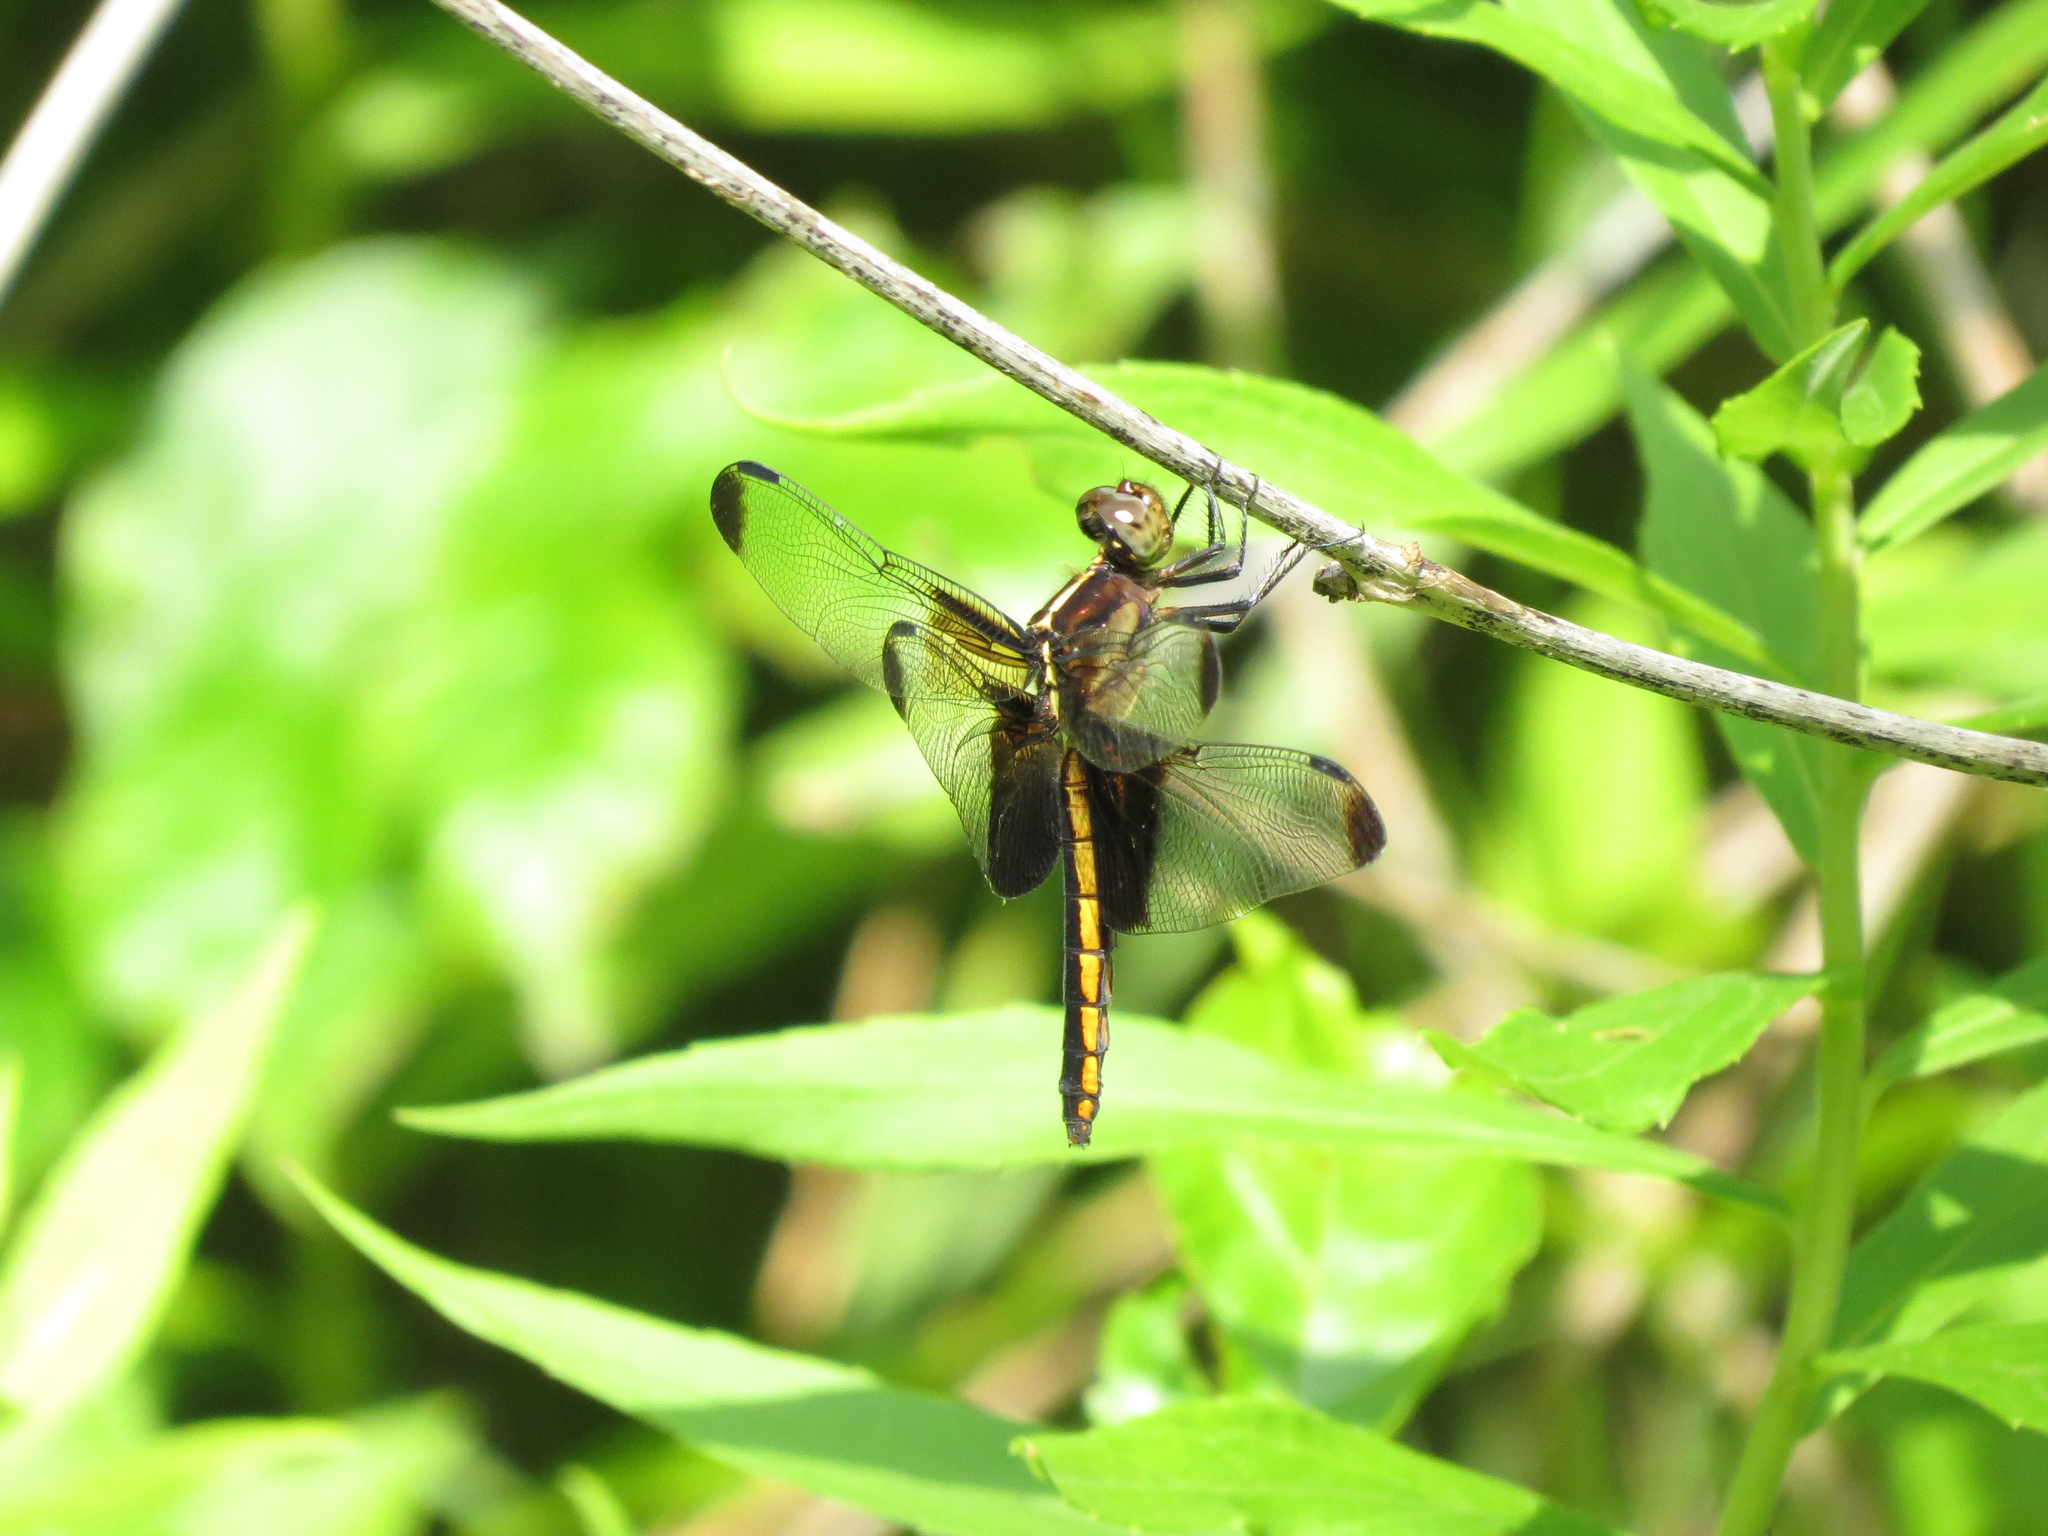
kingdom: Animalia
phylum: Arthropoda
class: Insecta
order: Odonata
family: Libellulidae
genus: Libellula
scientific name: Libellula luctuosa
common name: Widow skimmer
